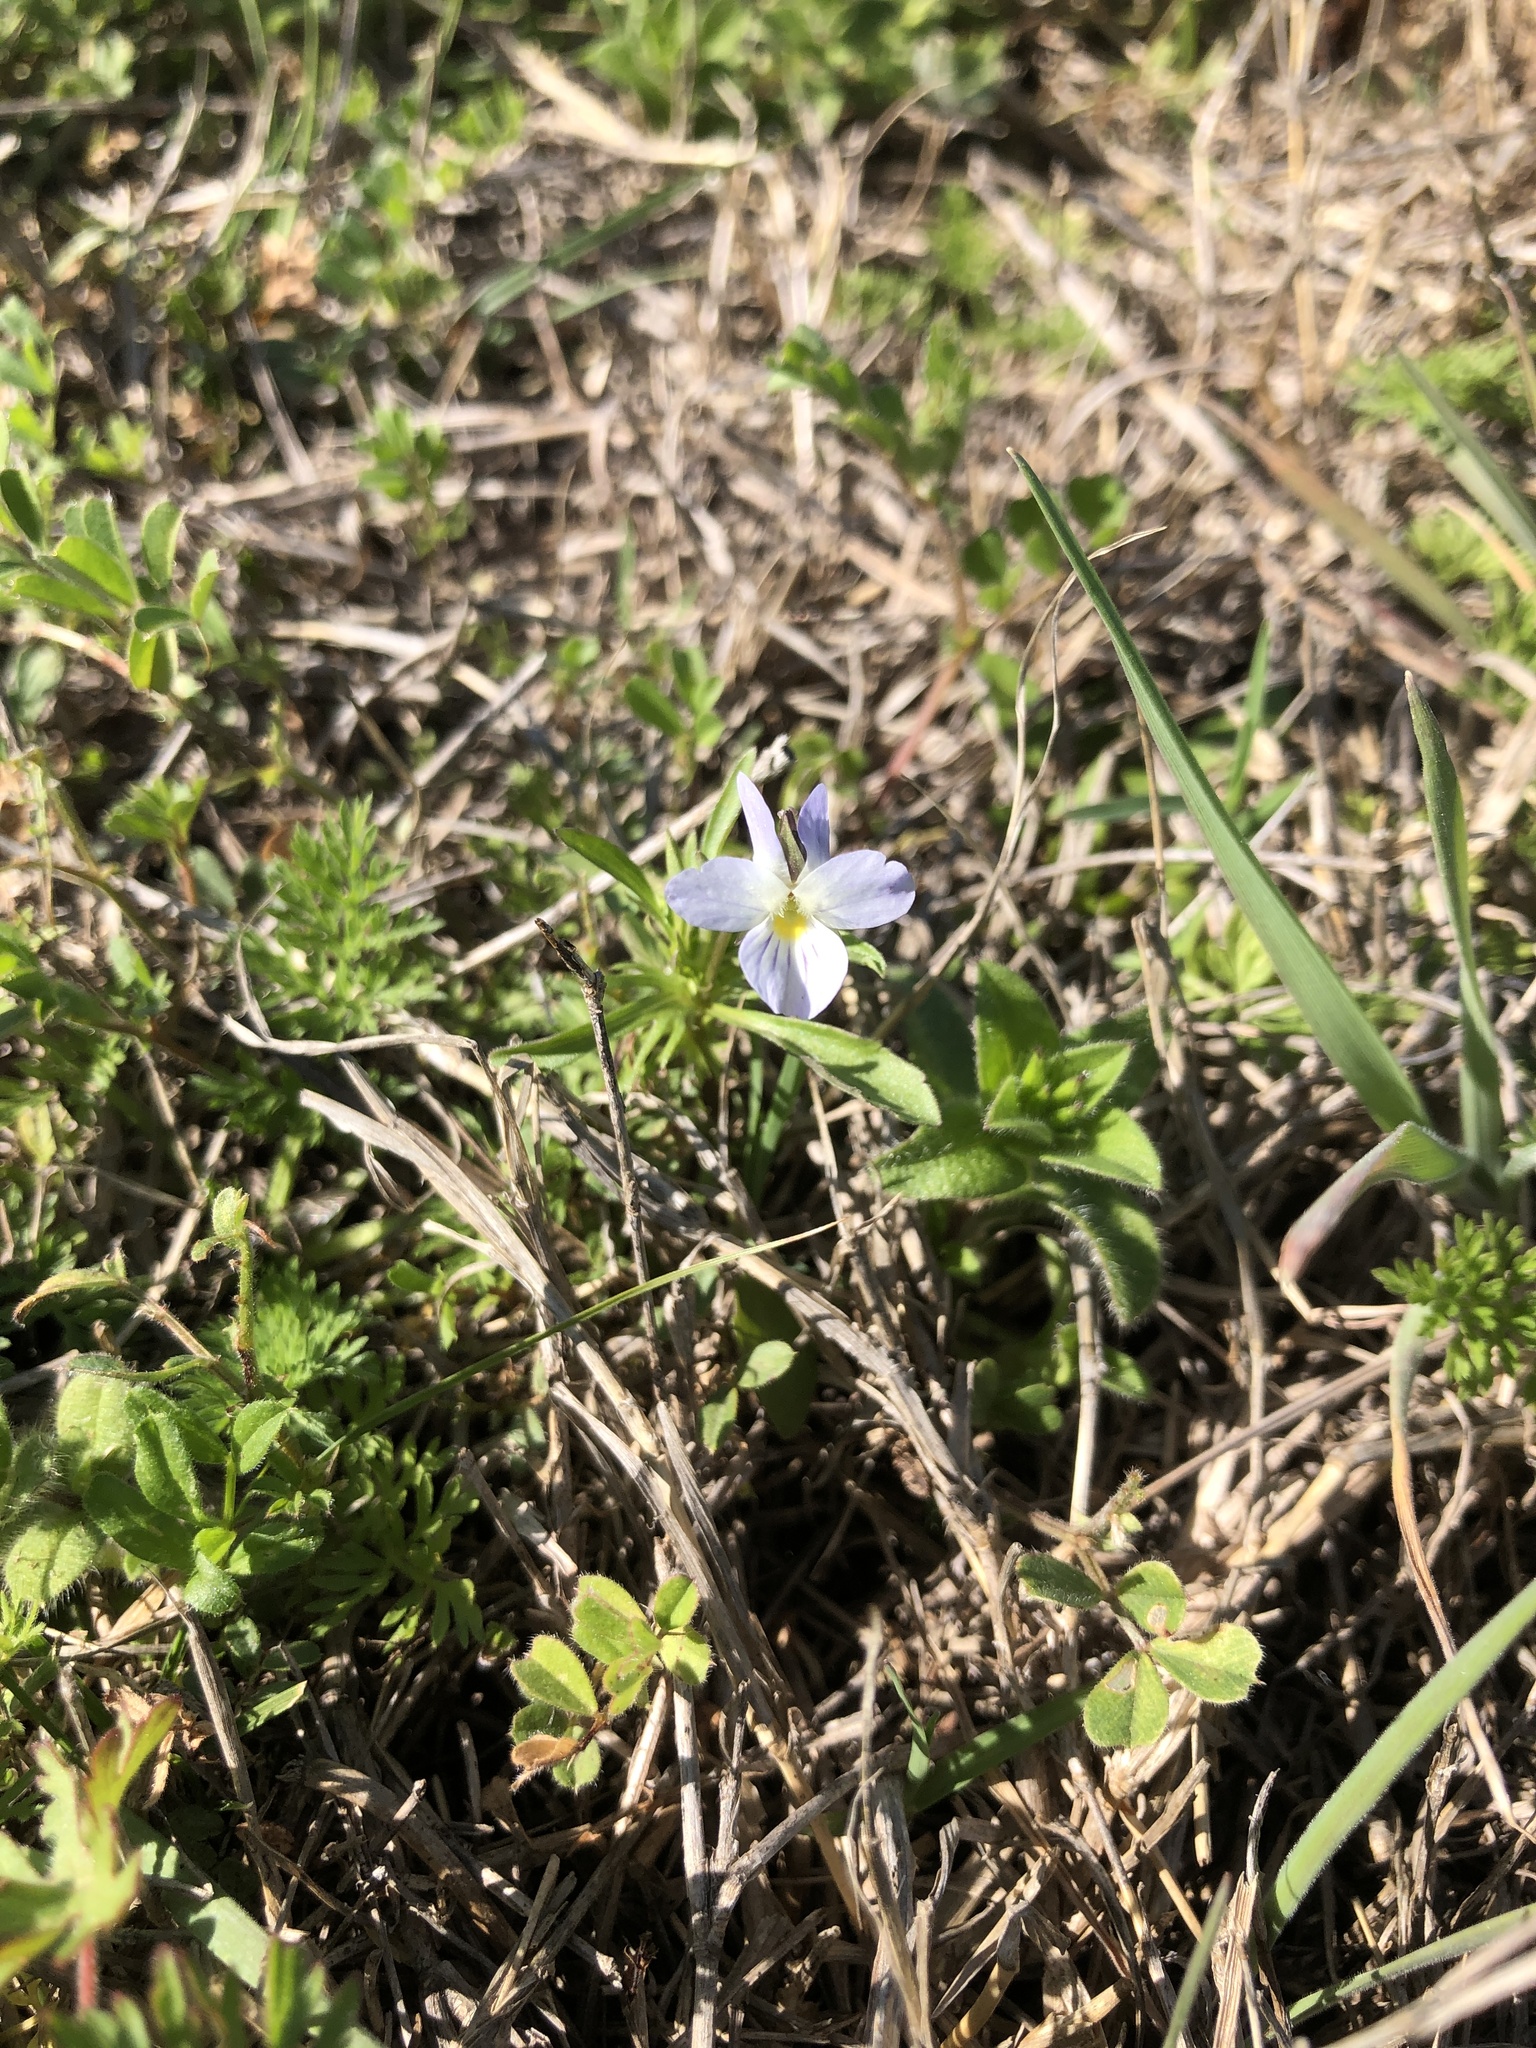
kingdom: Plantae
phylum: Tracheophyta
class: Magnoliopsida
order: Malpighiales
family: Violaceae
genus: Viola
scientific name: Viola rafinesquei
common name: American field pansy
